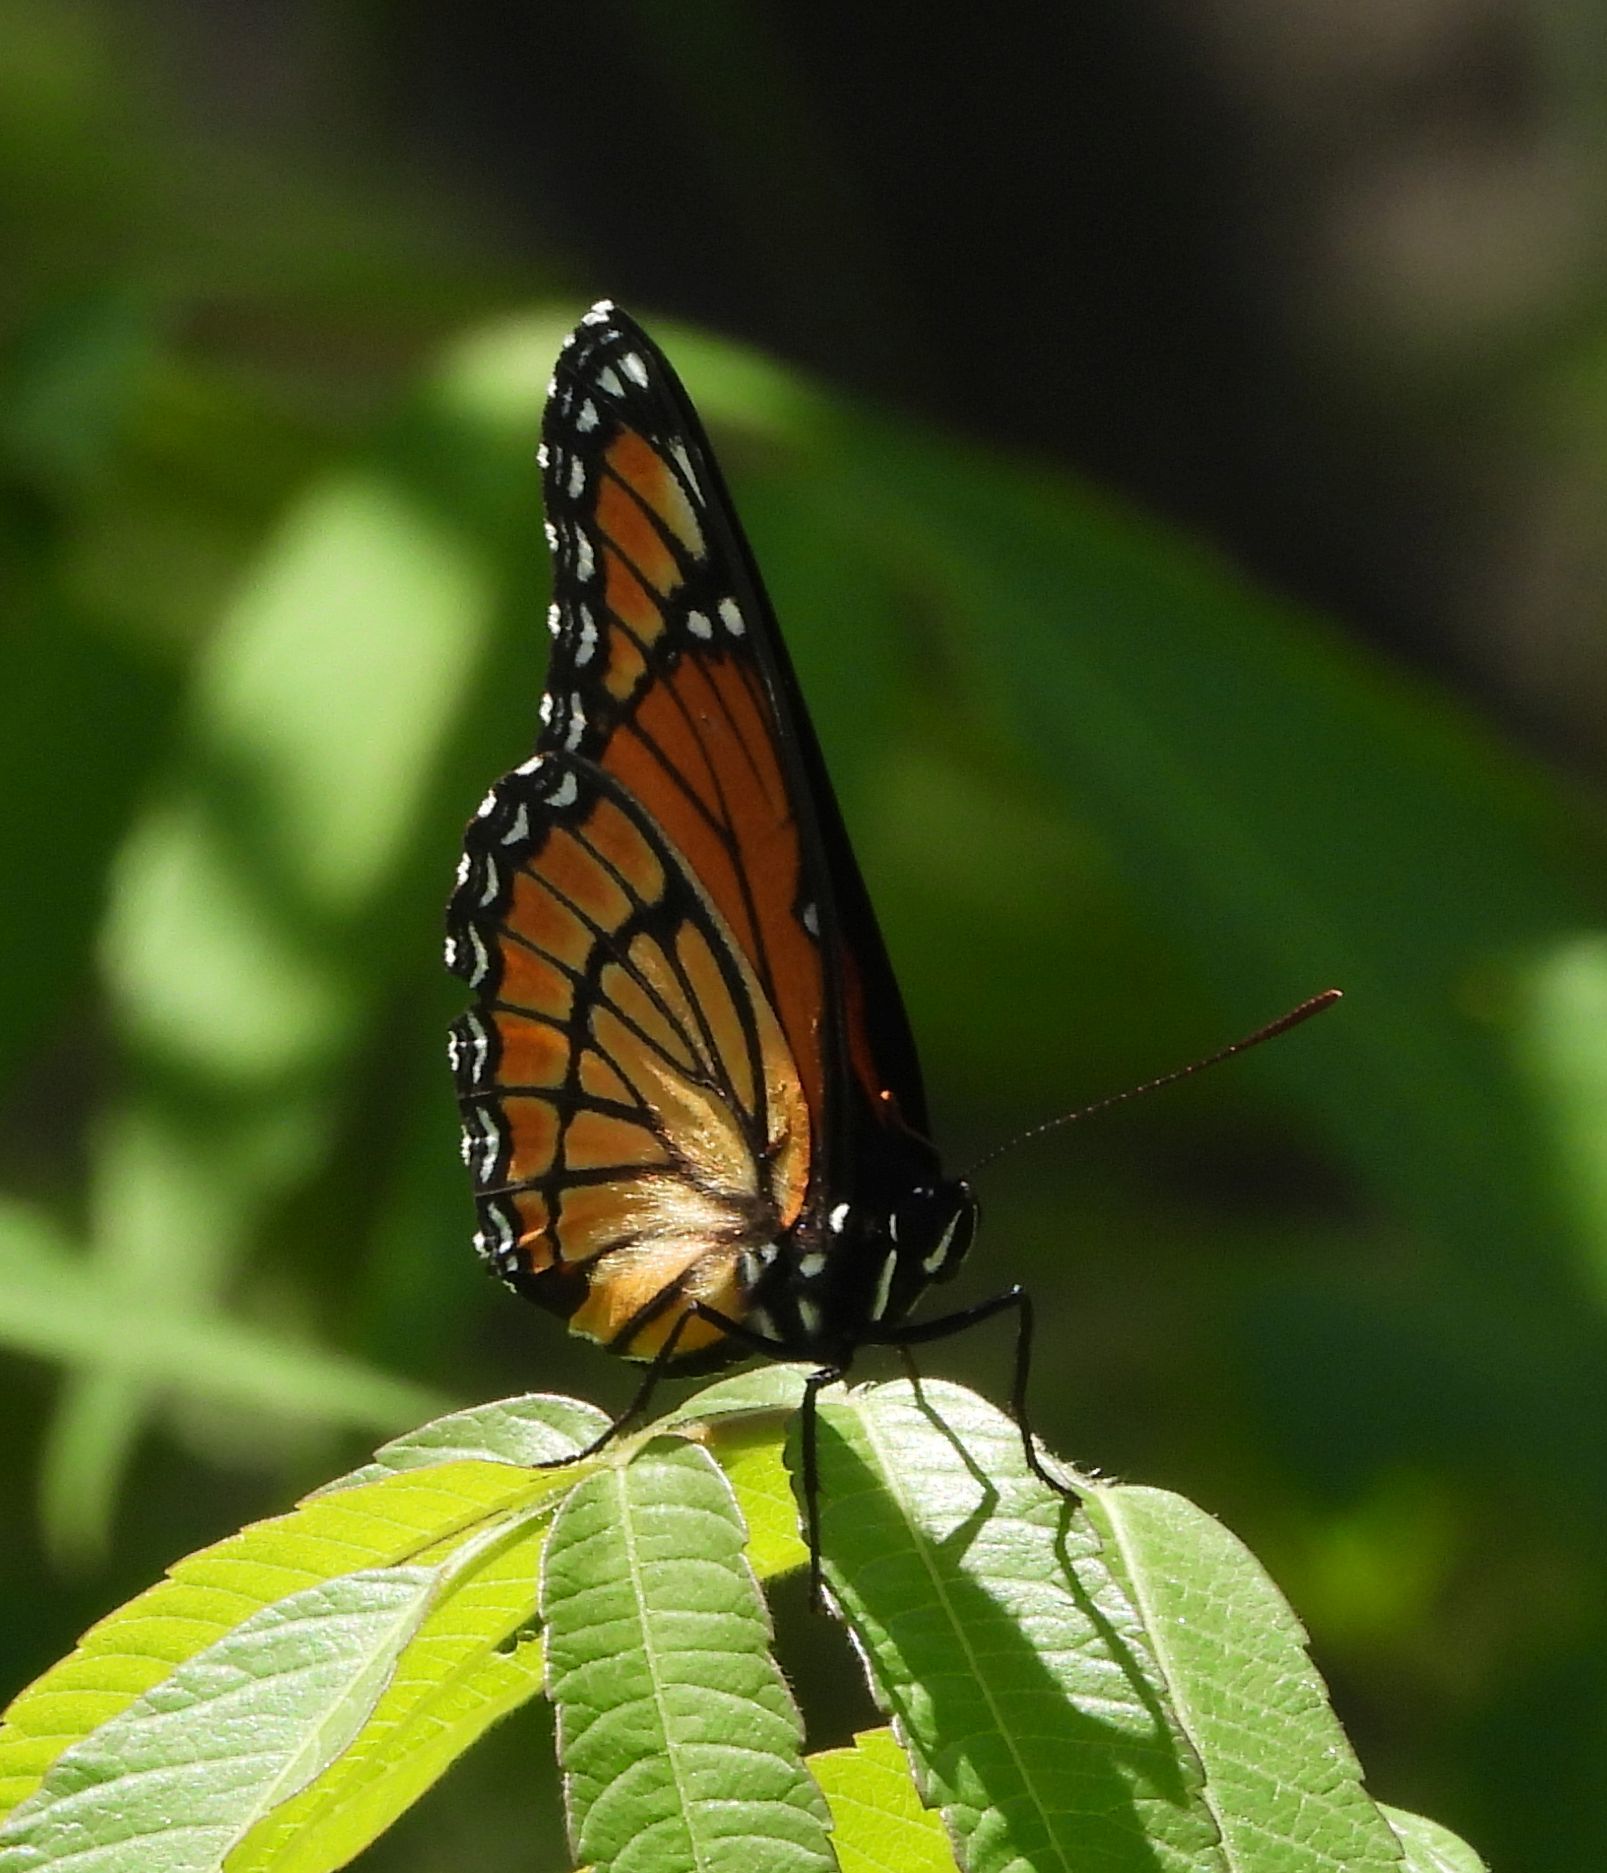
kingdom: Animalia
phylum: Arthropoda
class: Insecta
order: Lepidoptera
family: Nymphalidae
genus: Limenitis
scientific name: Limenitis archippus
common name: Viceroy
